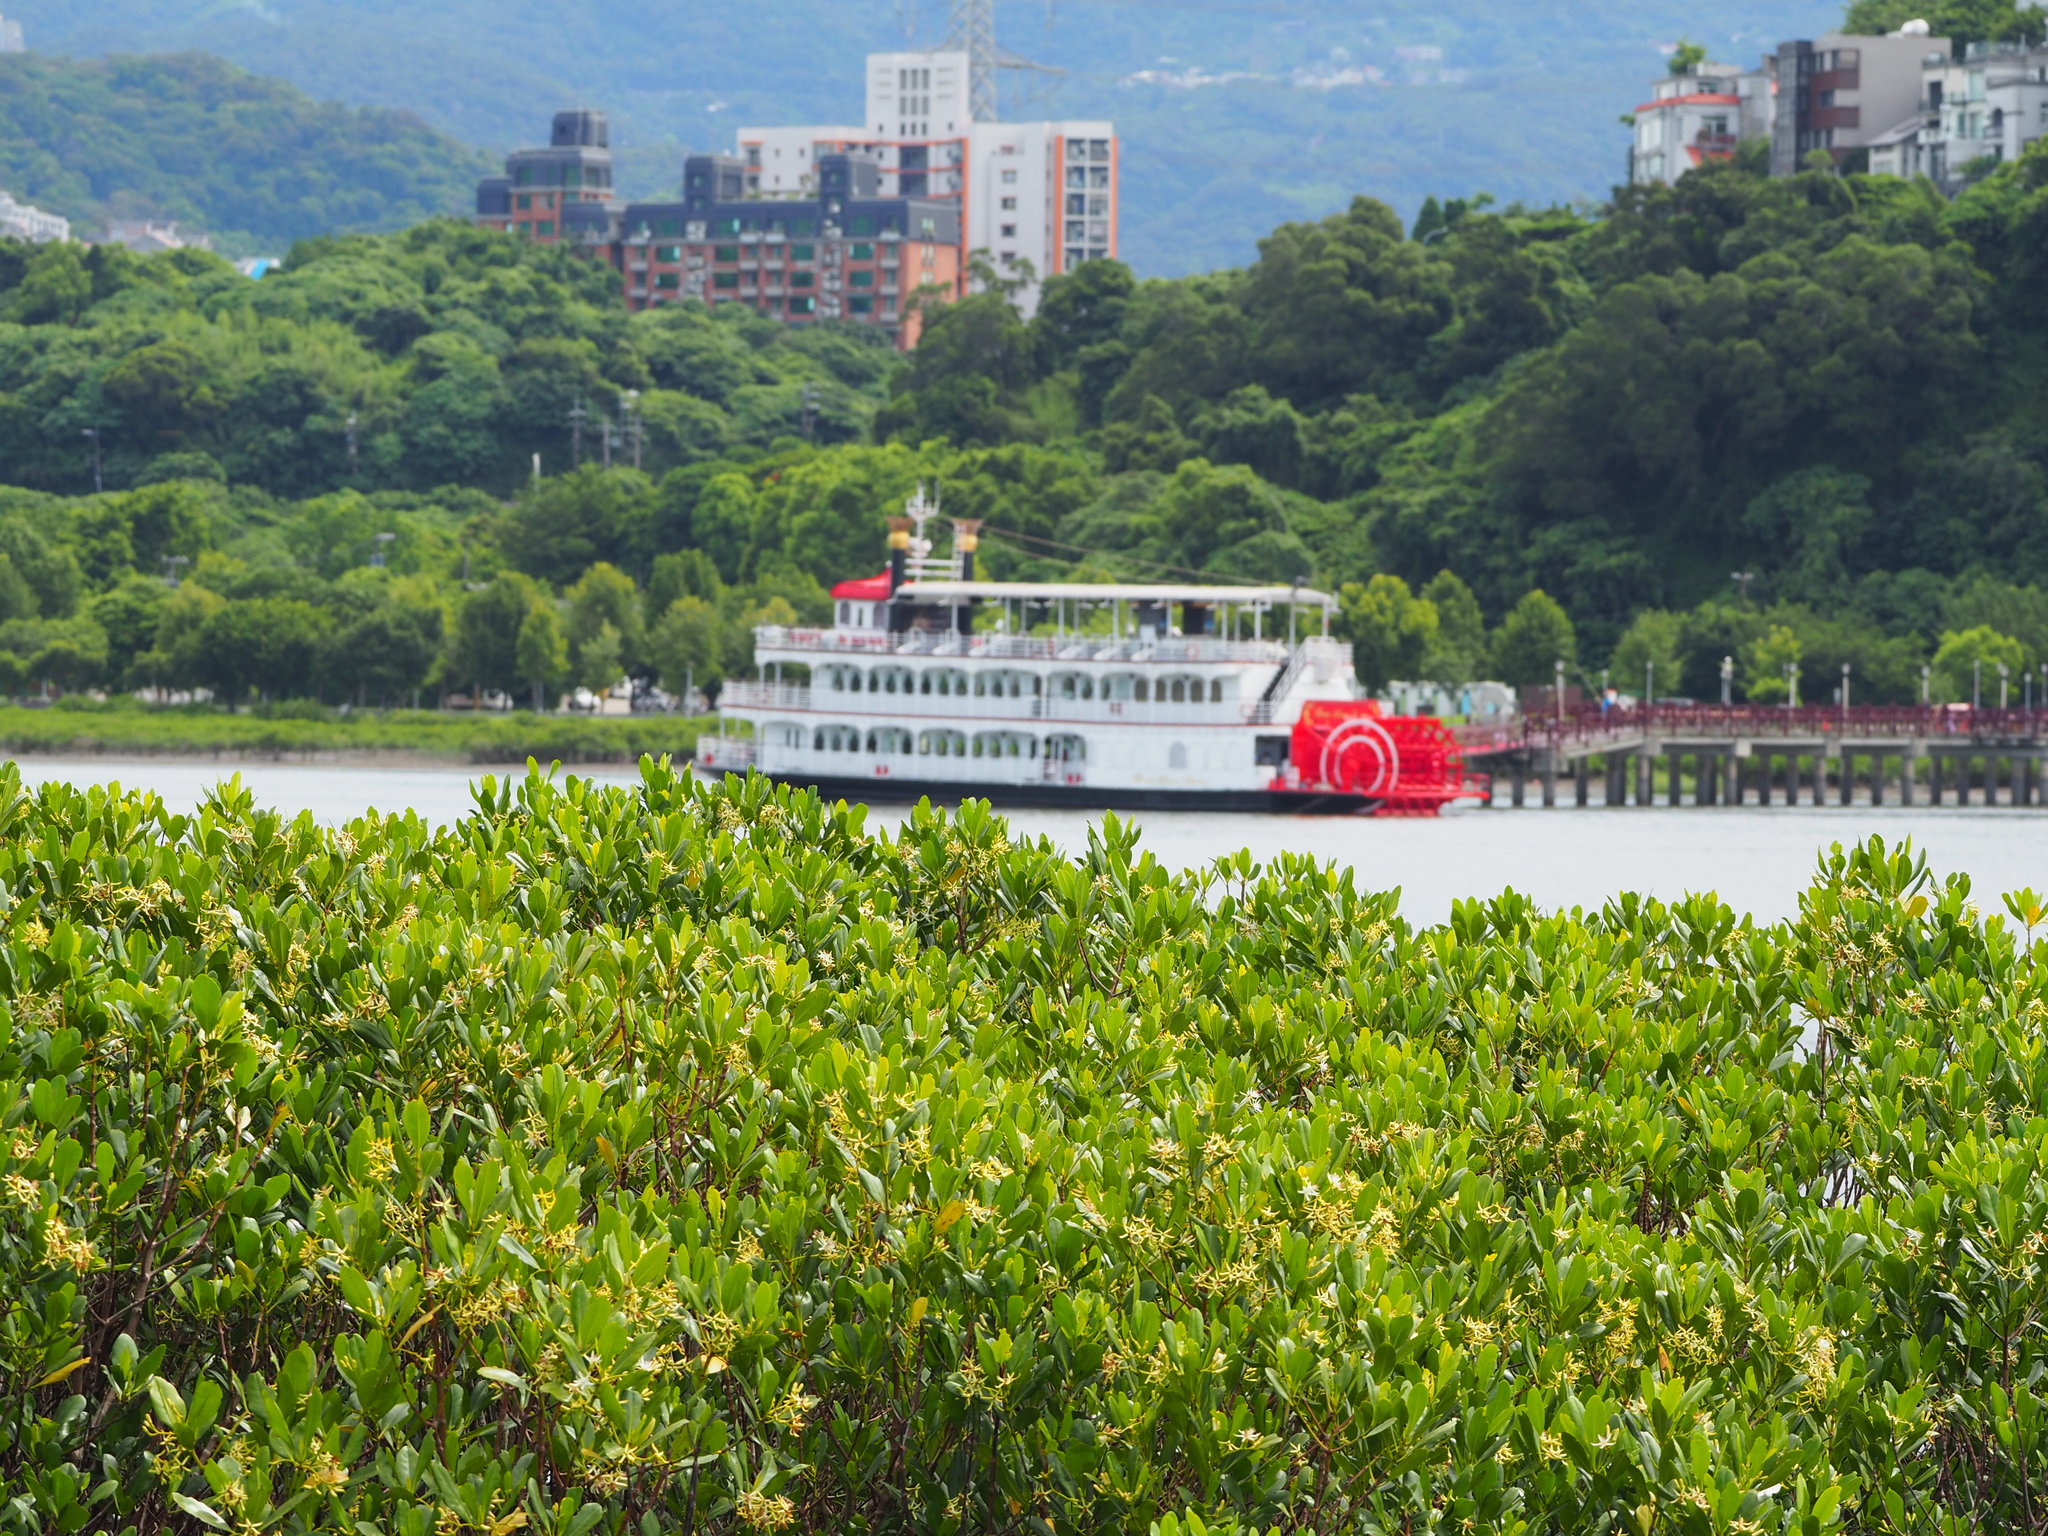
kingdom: Plantae
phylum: Tracheophyta
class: Magnoliopsida
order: Malpighiales
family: Rhizophoraceae
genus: Kandelia
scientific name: Kandelia obovata
